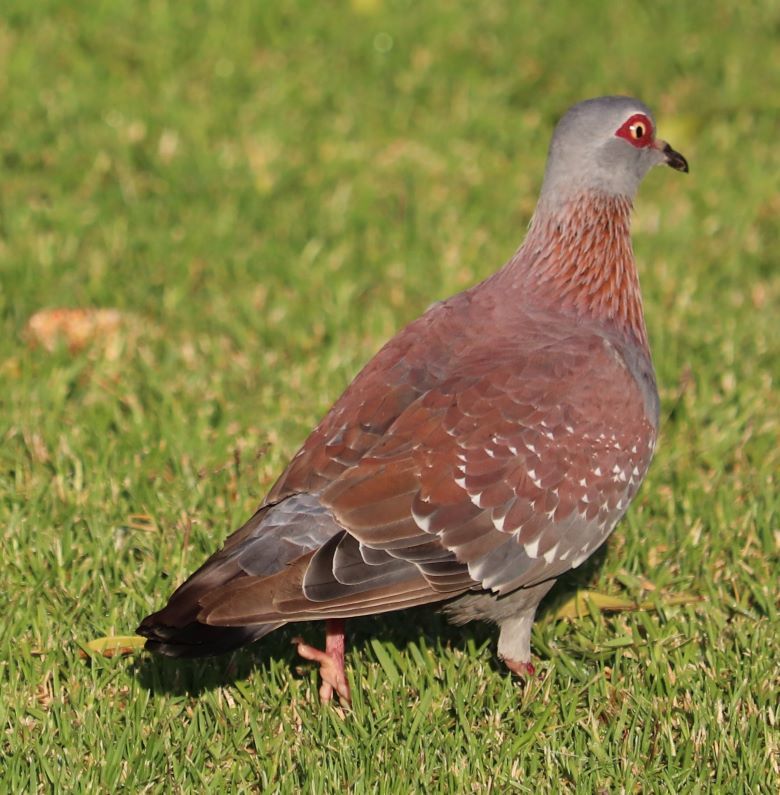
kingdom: Animalia
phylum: Chordata
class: Aves
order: Columbiformes
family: Columbidae
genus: Columba
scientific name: Columba guinea
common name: Speckled pigeon
